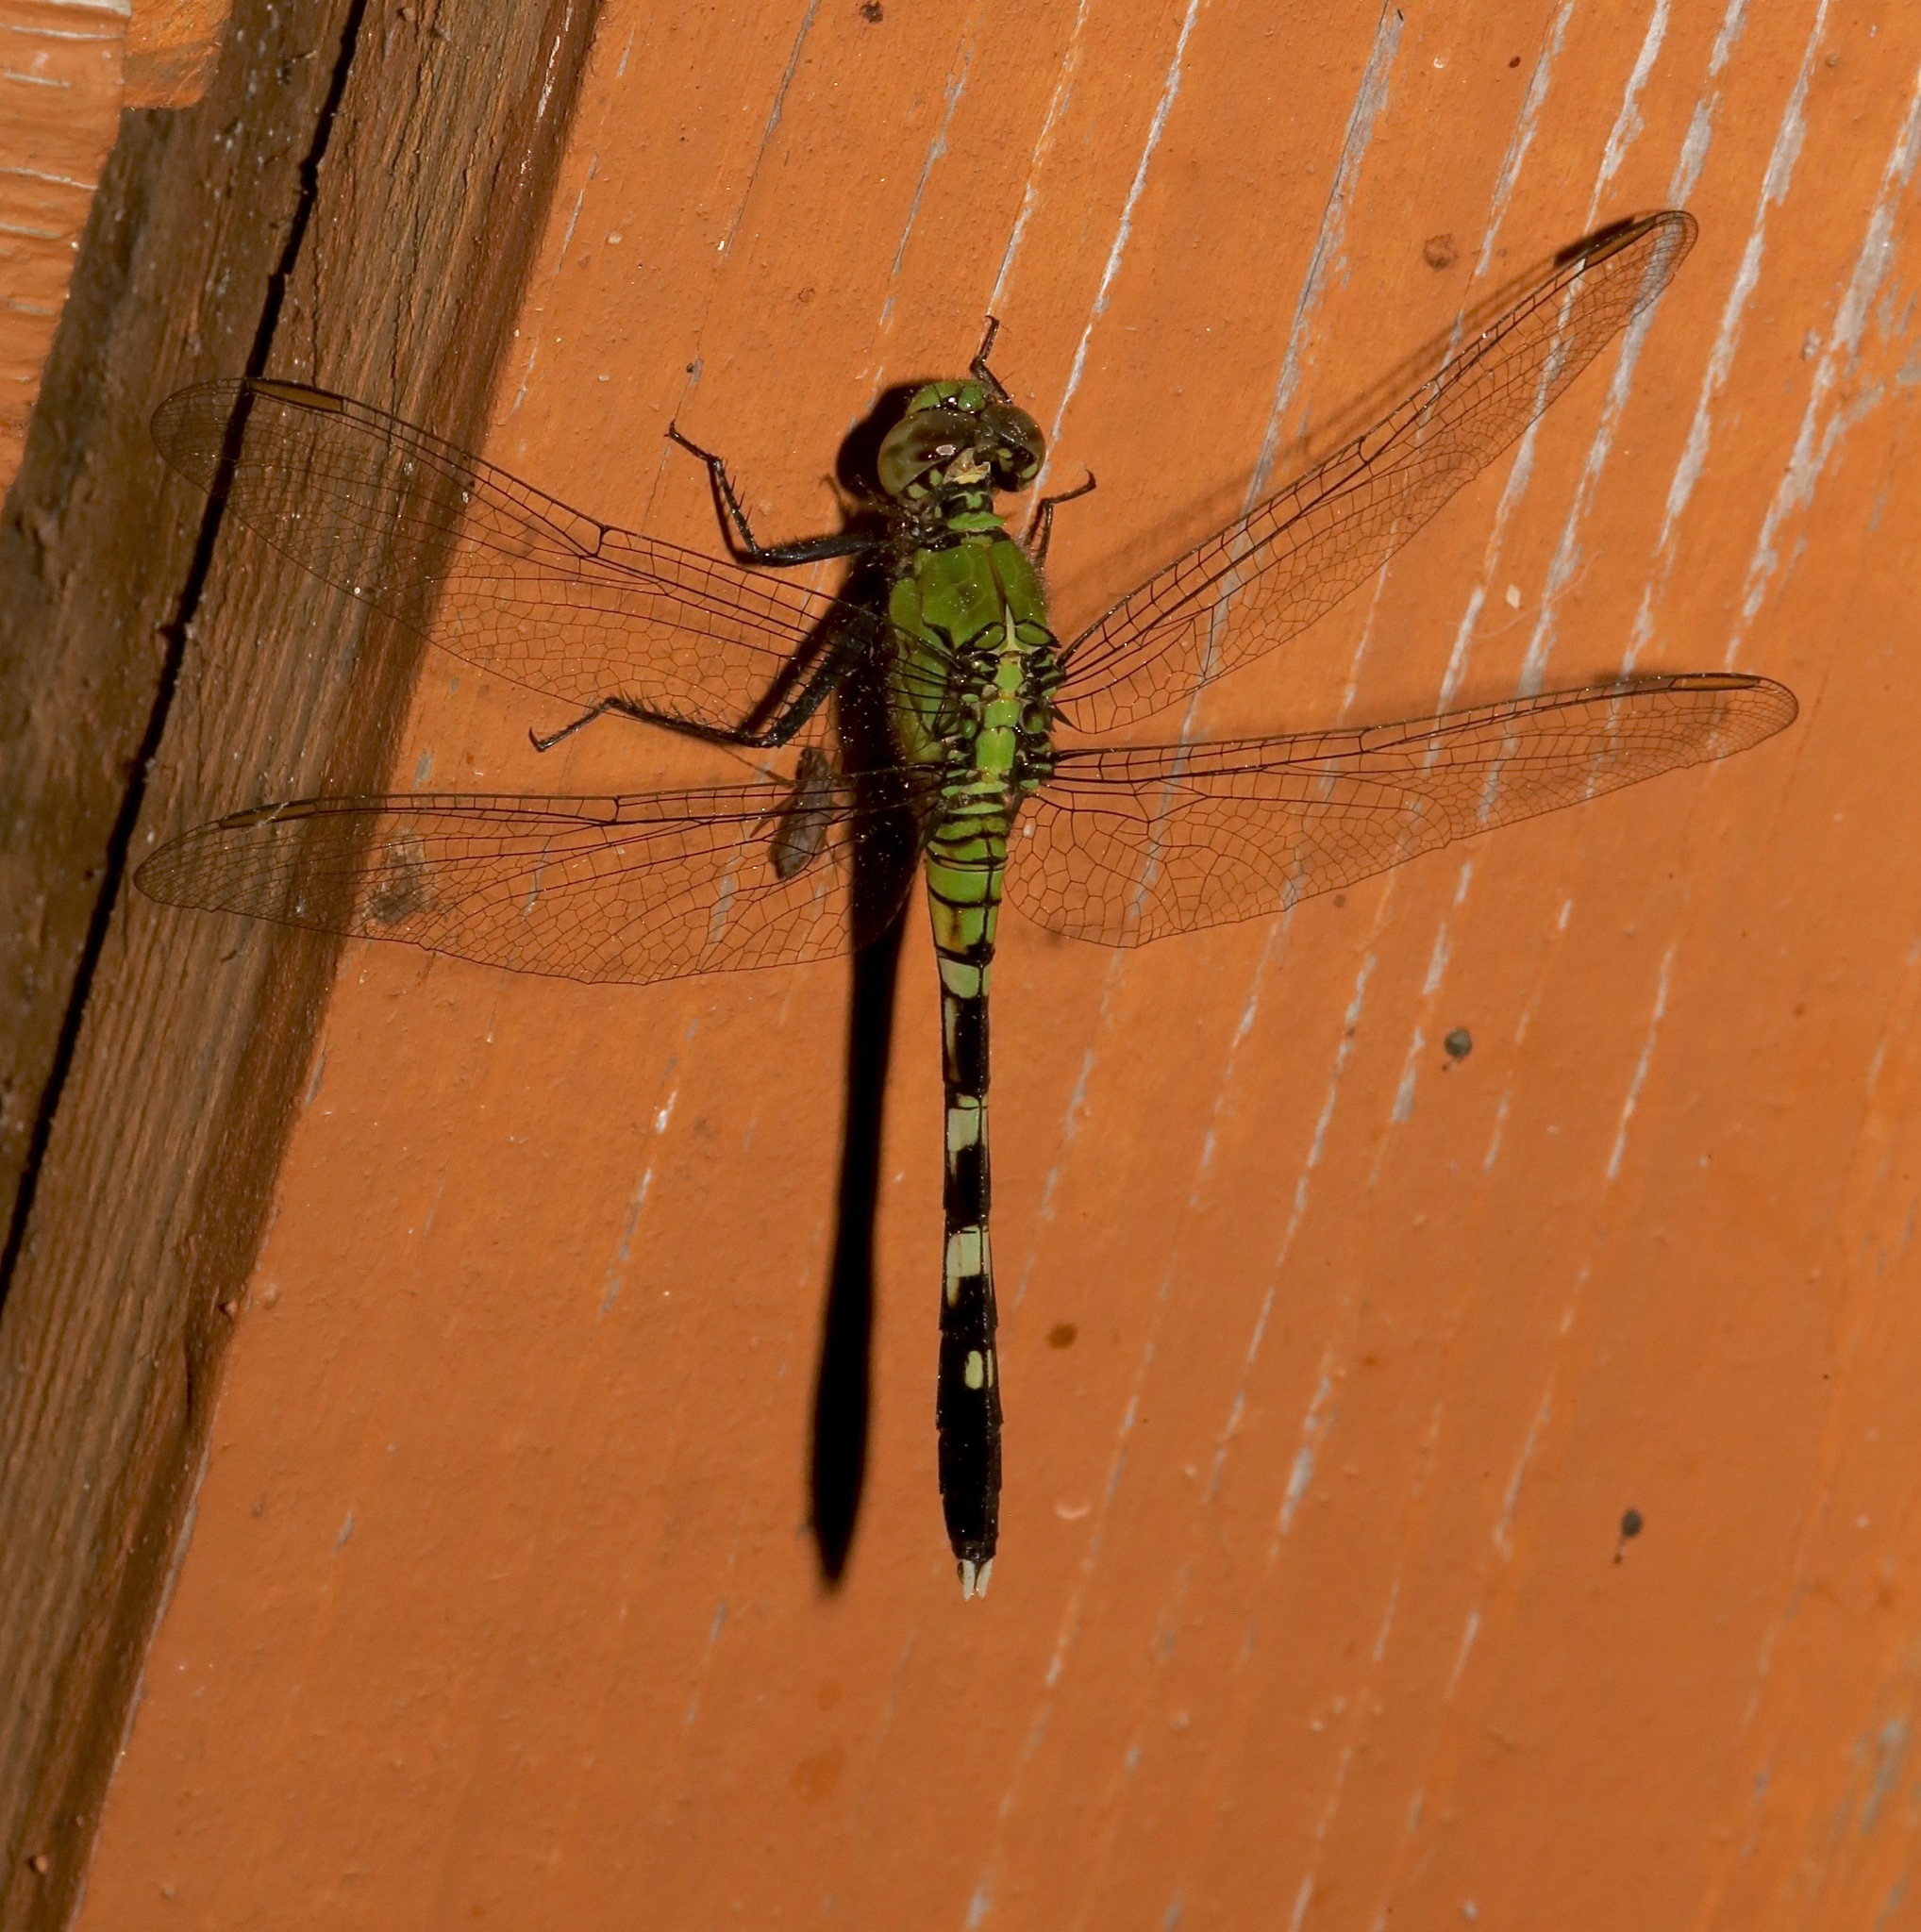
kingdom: Animalia
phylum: Arthropoda
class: Insecta
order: Odonata
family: Libellulidae
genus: Erythemis
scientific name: Erythemis simplicicollis
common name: Eastern pondhawk
